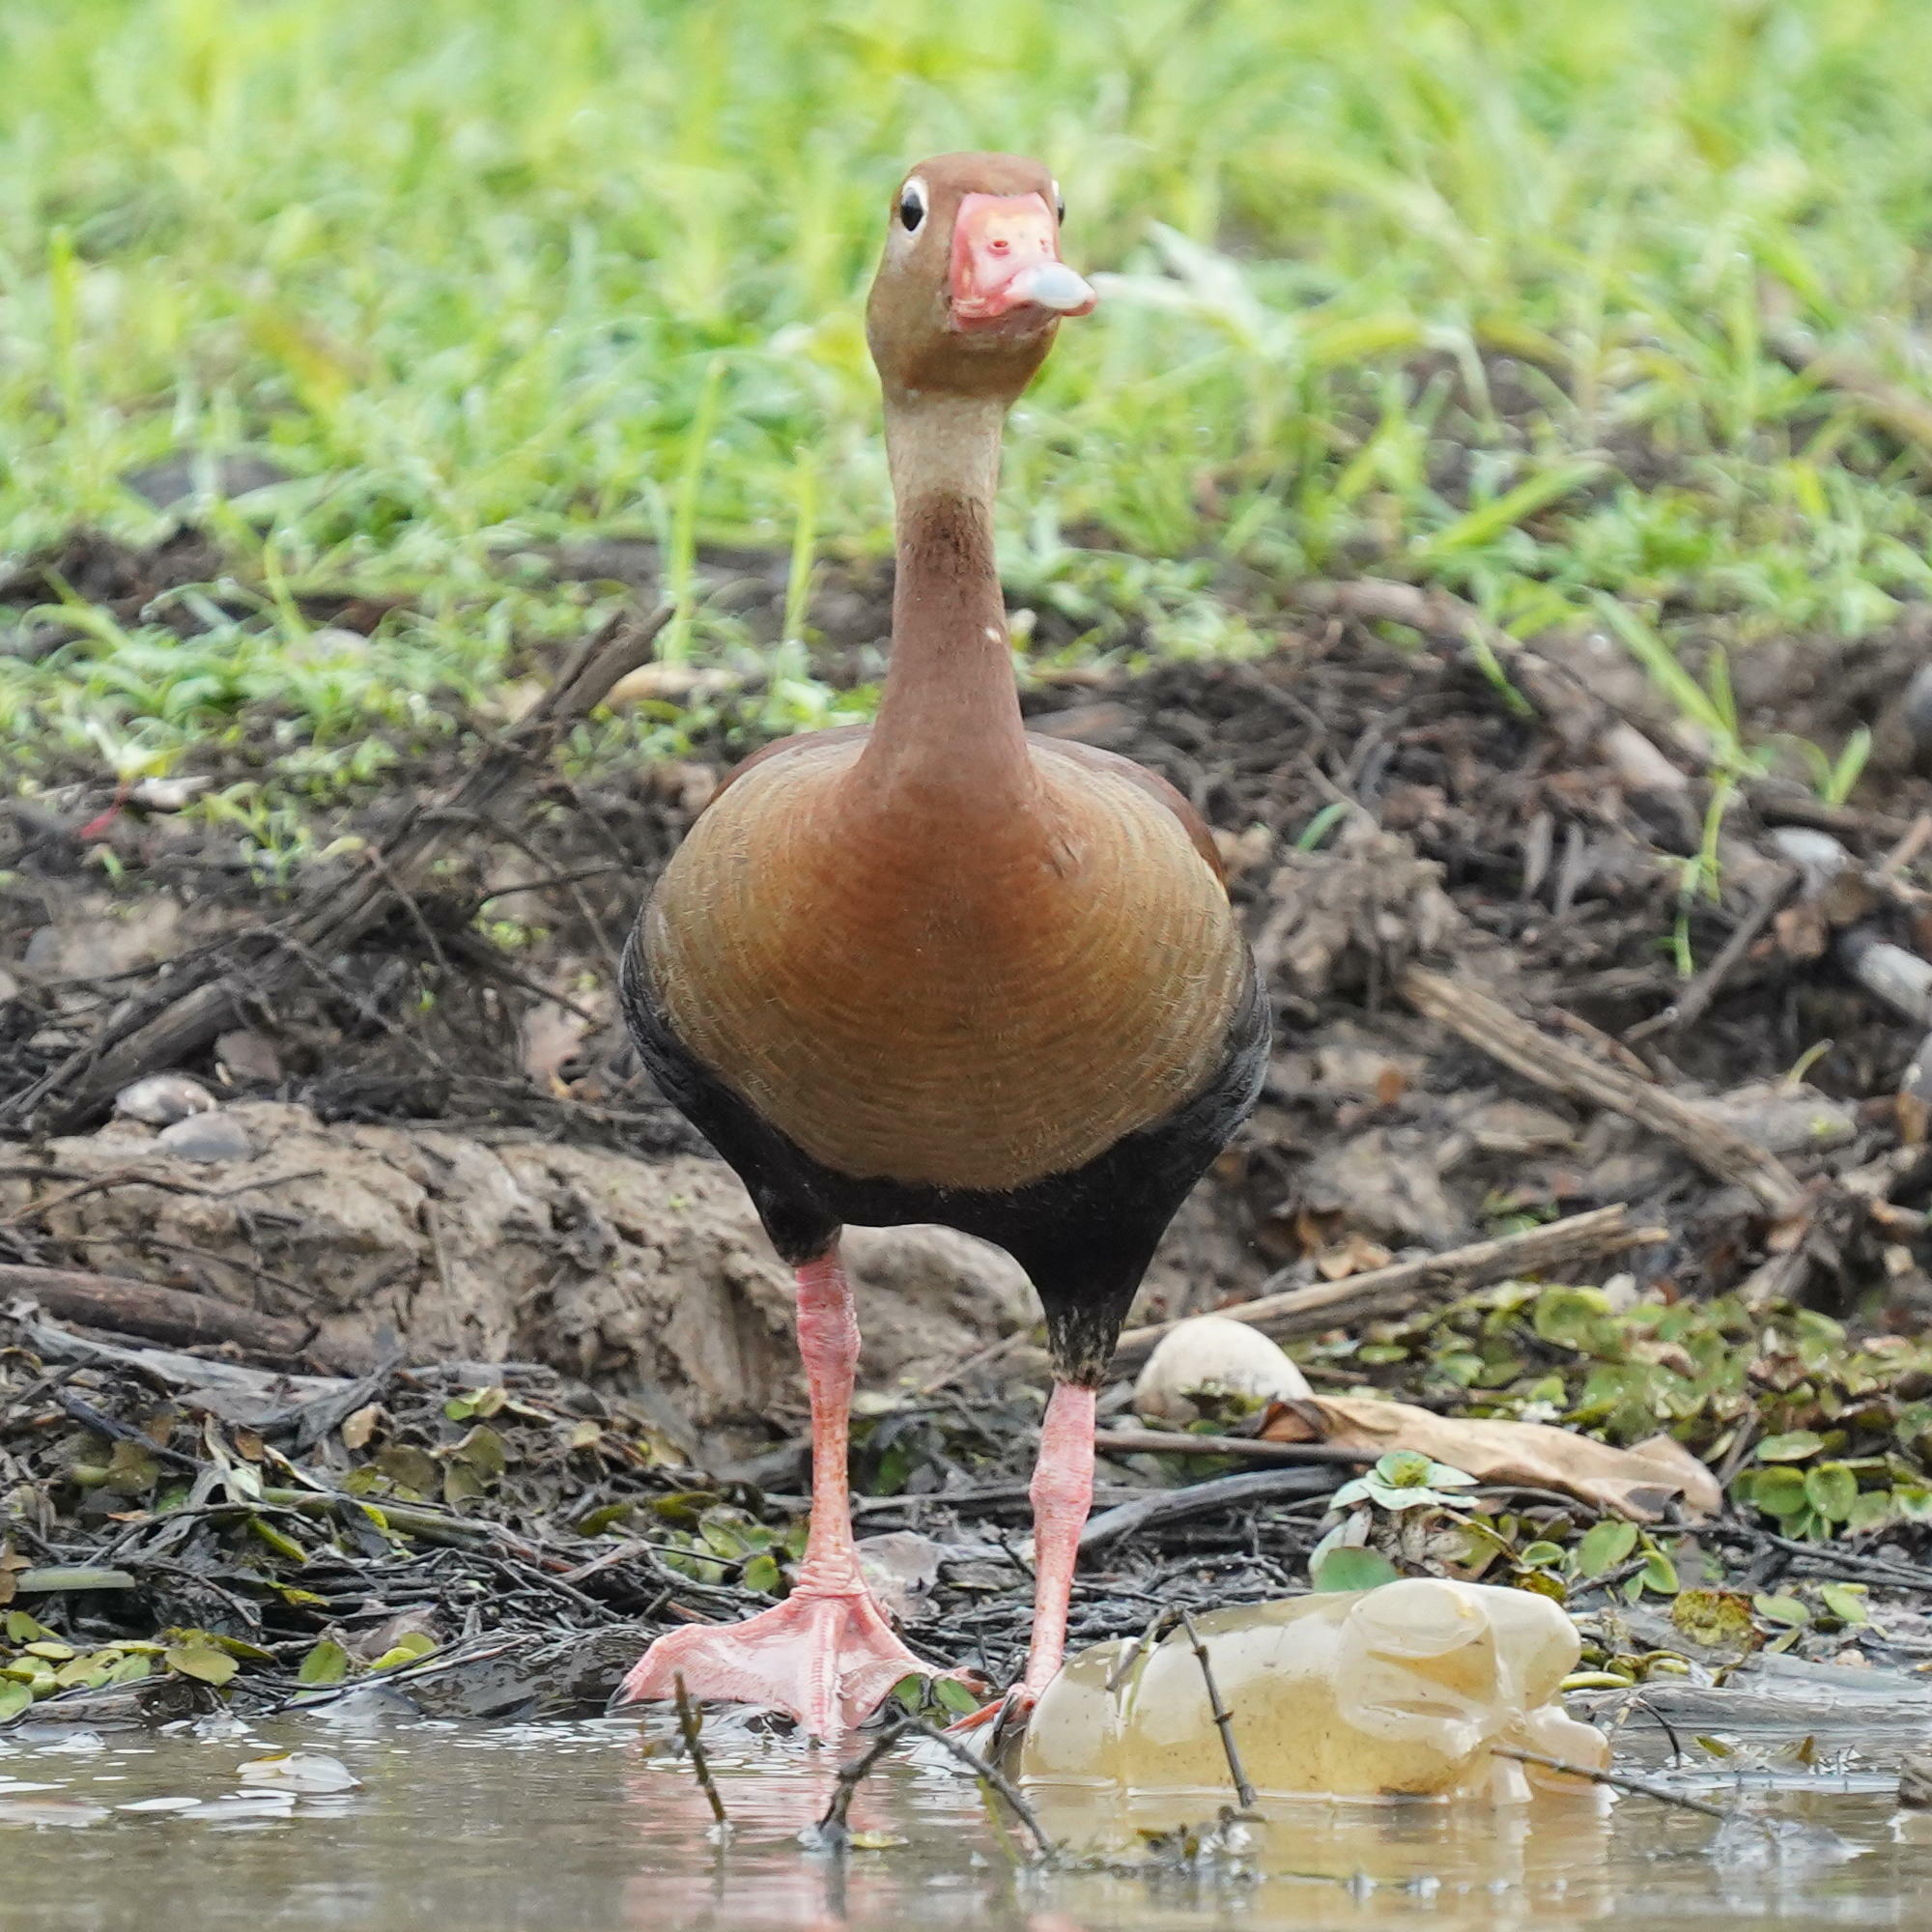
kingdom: Animalia
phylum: Chordata
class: Aves
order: Anseriformes
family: Anatidae
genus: Dendrocygna
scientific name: Dendrocygna autumnalis
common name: Black-bellied whistling duck
